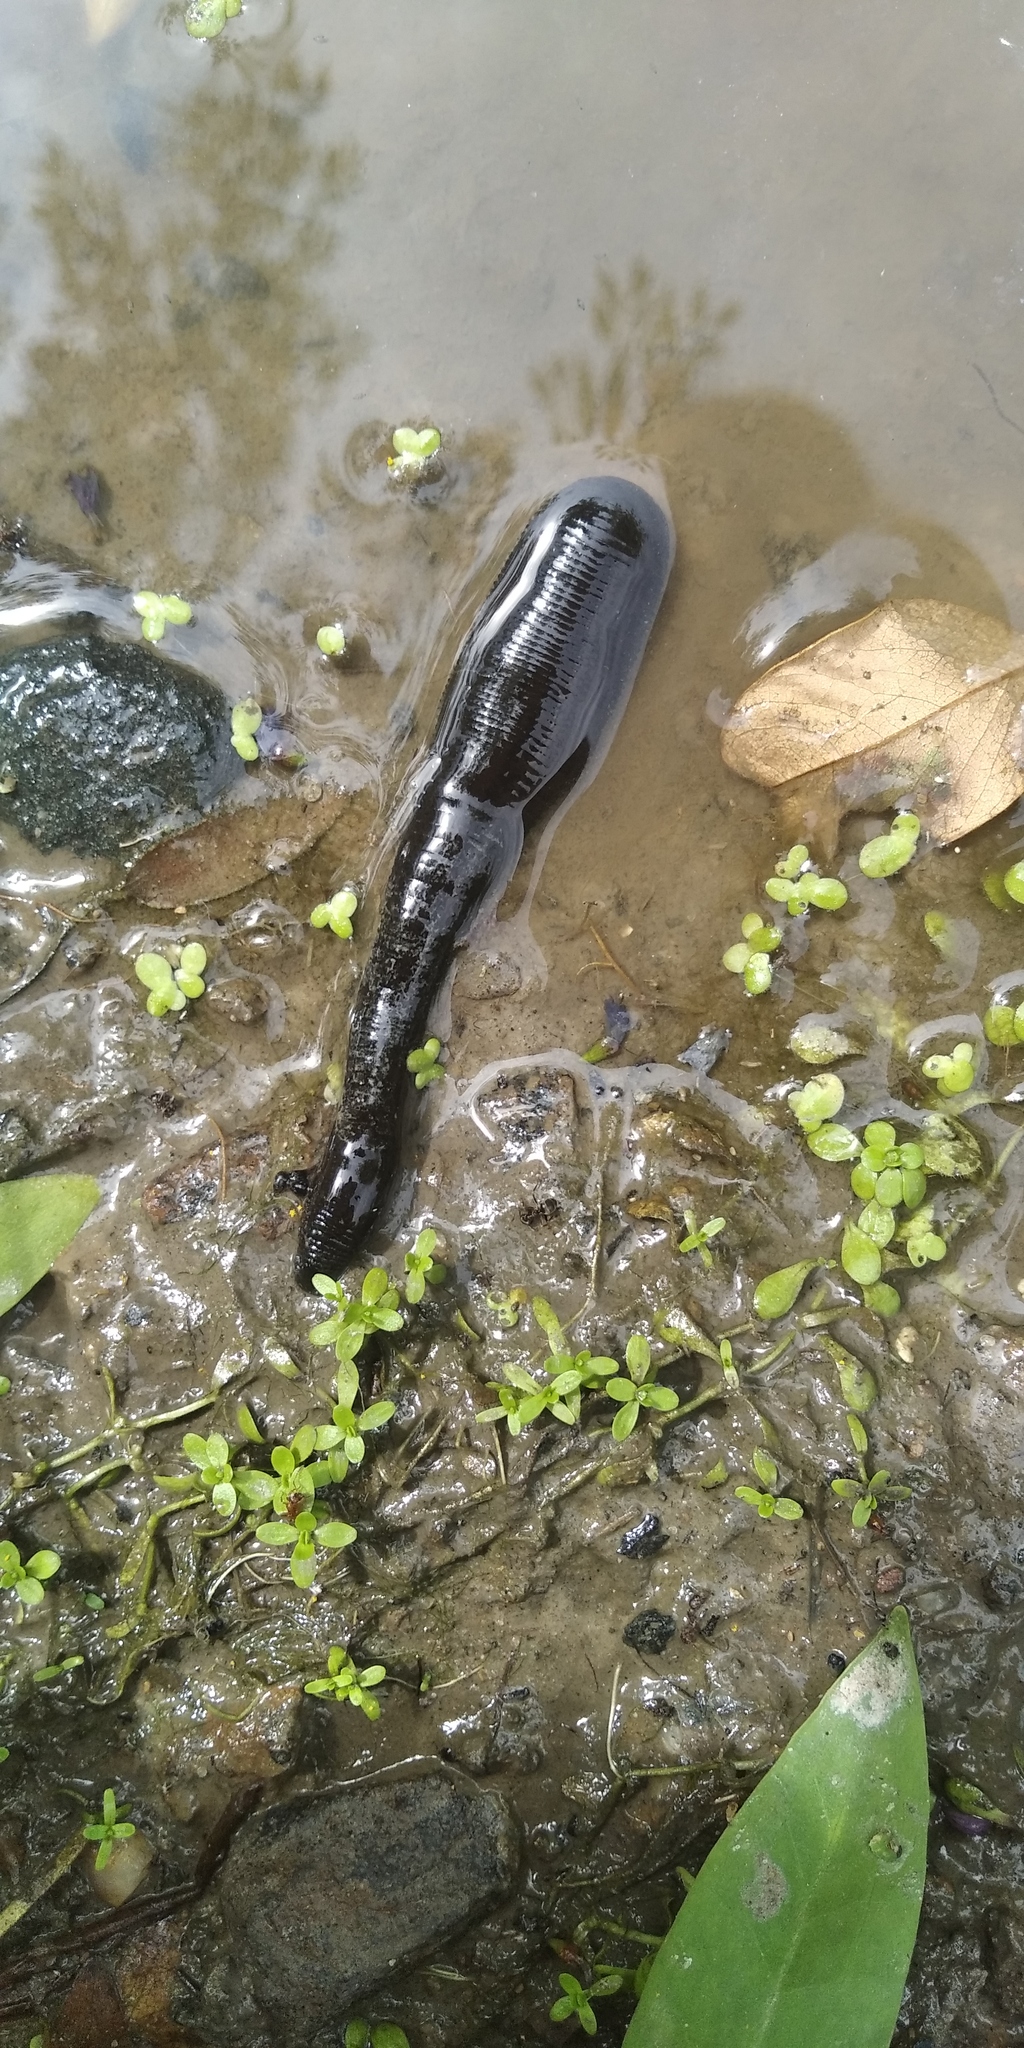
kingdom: Animalia
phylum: Annelida
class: Clitellata
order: Arhynchobdellida
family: Haemopidae
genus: Haemopis
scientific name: Haemopis sanguisuga
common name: Horse leech
